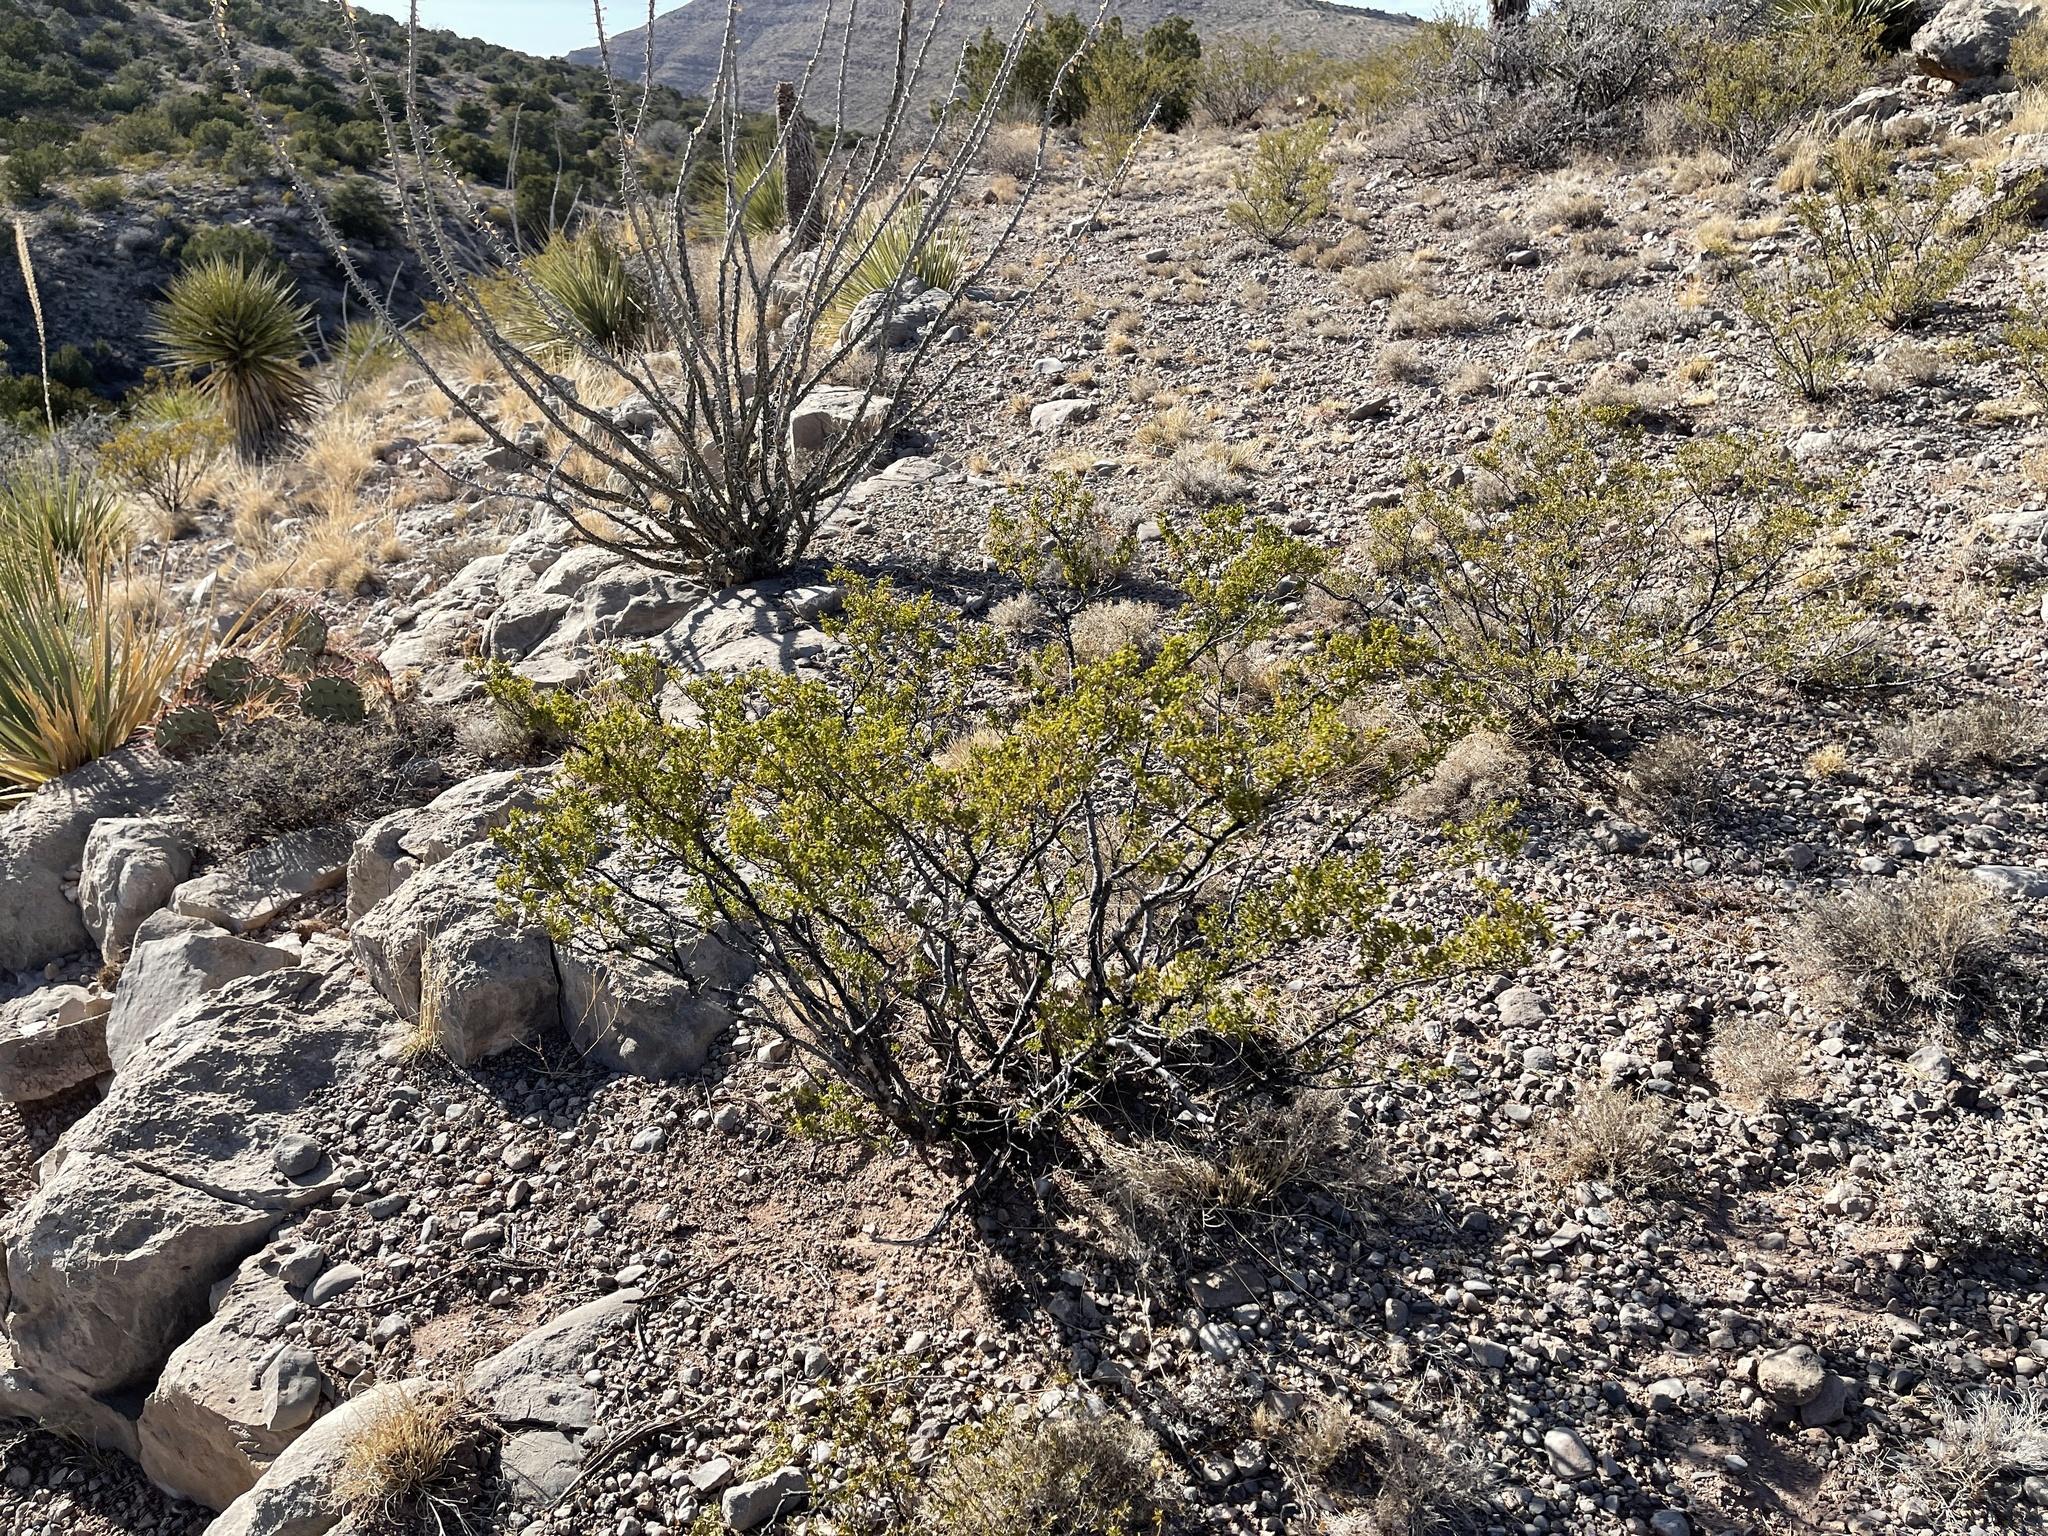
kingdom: Plantae
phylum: Tracheophyta
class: Magnoliopsida
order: Zygophyllales
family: Zygophyllaceae
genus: Larrea
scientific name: Larrea tridentata
